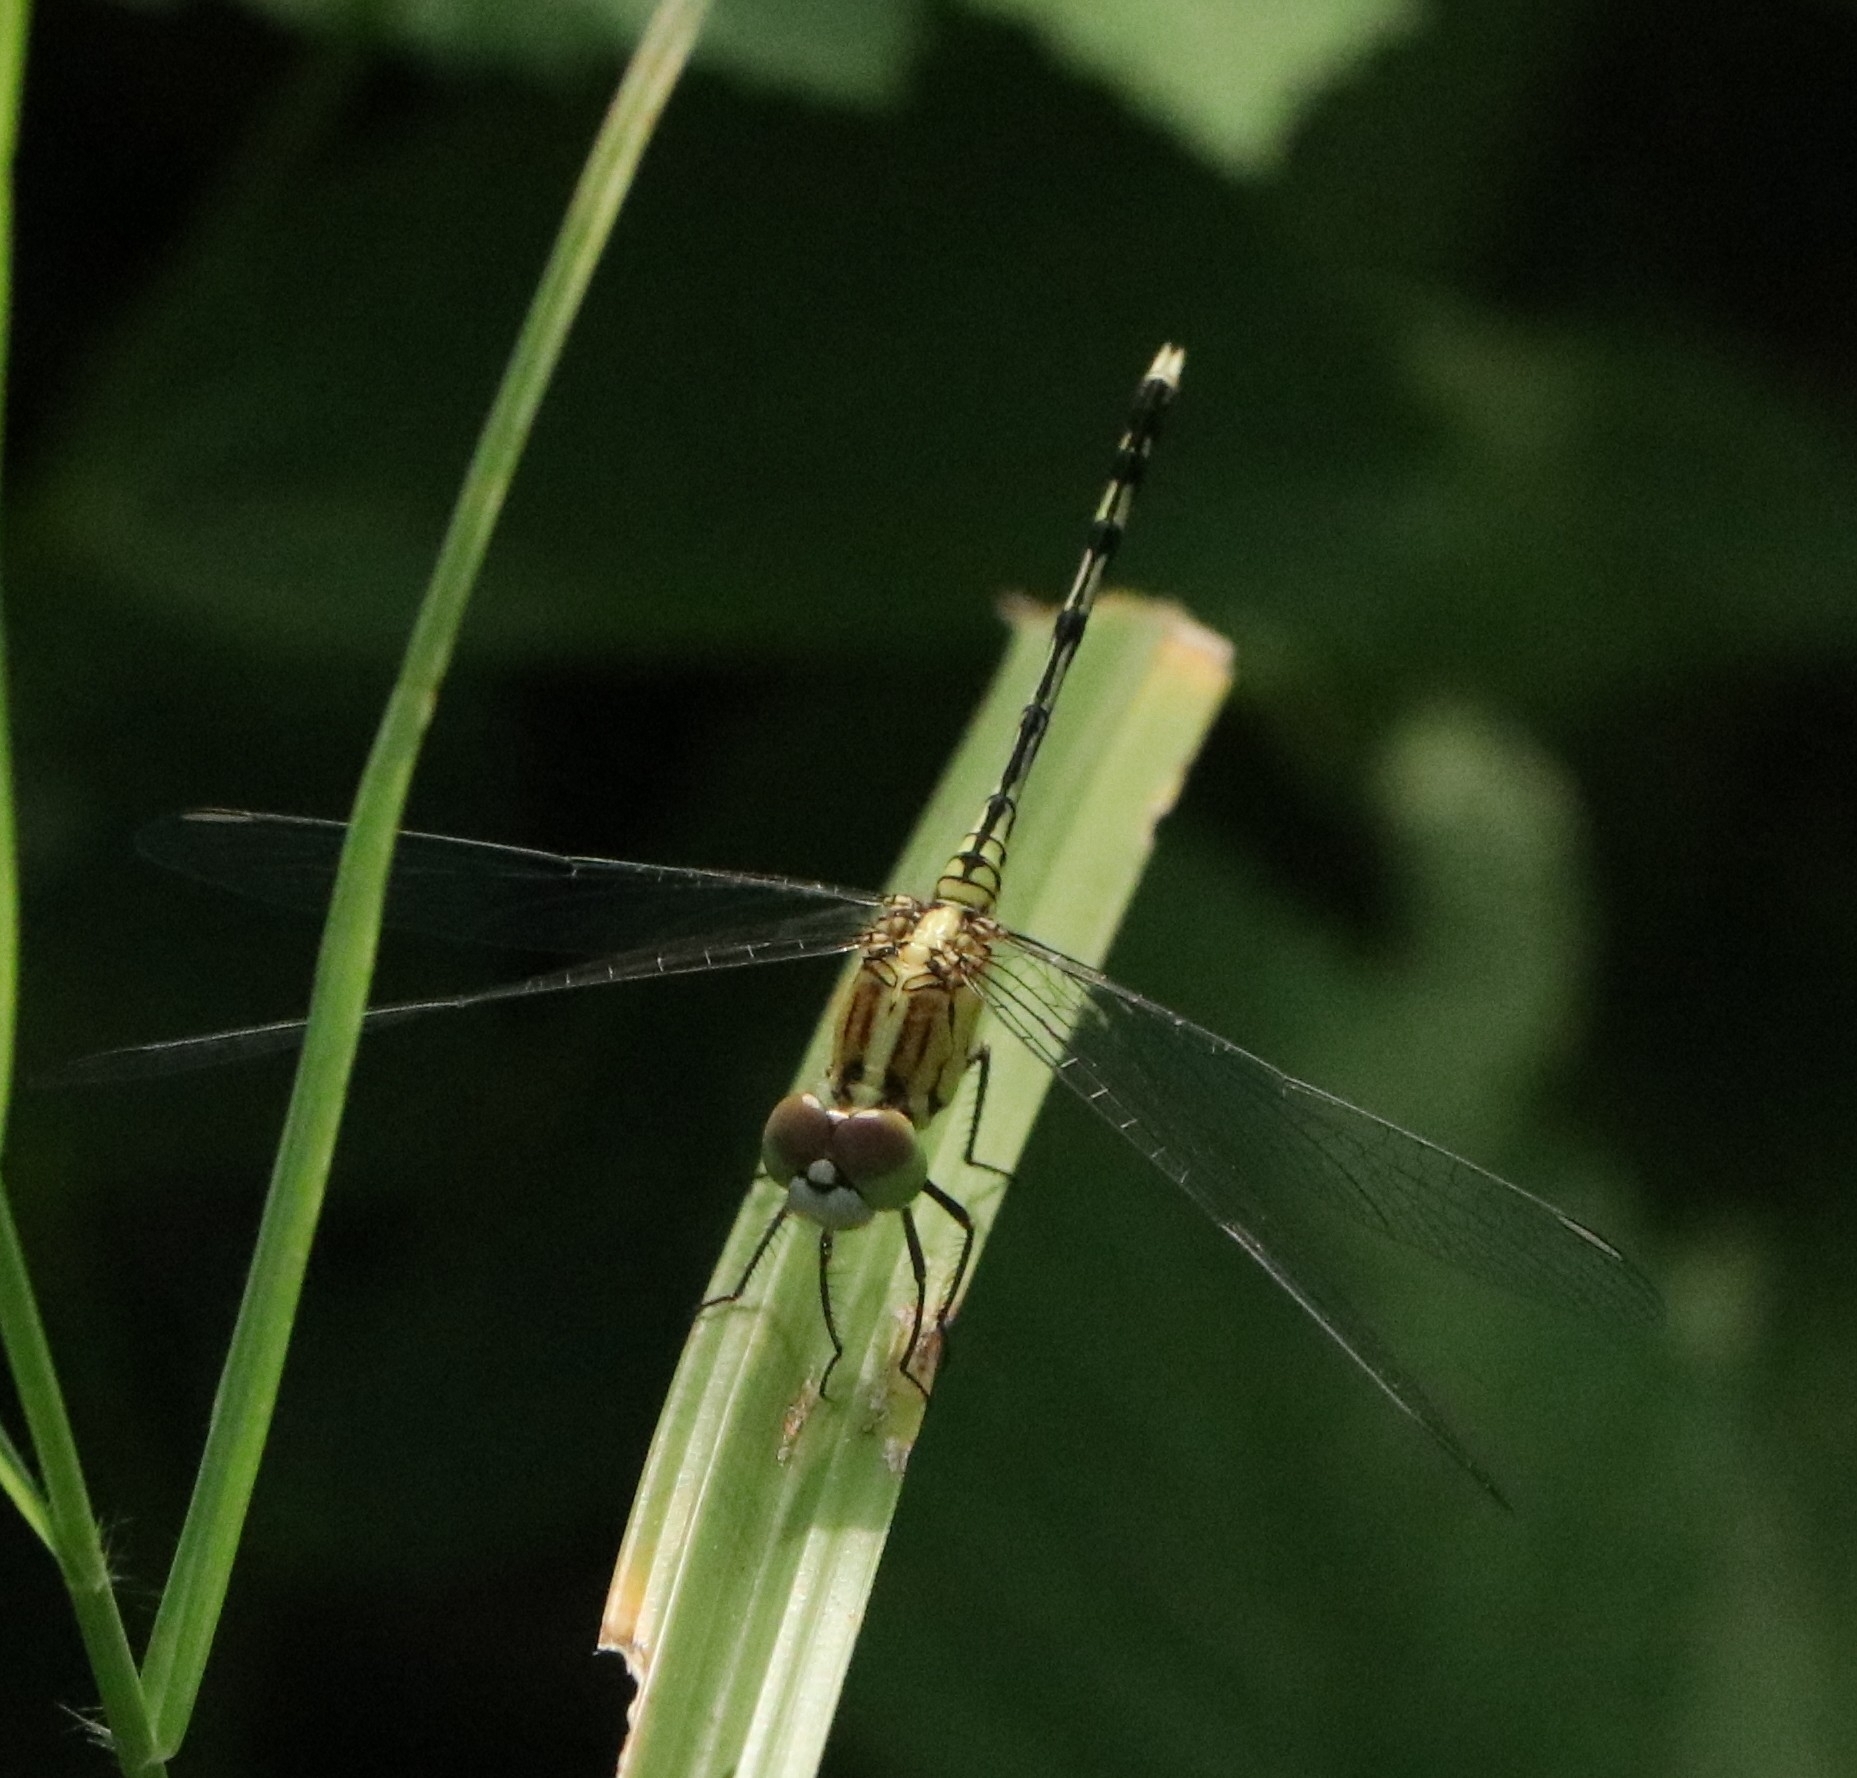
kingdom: Animalia
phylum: Arthropoda
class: Insecta
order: Odonata
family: Libellulidae
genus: Diplacodes
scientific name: Diplacodes trivialis
